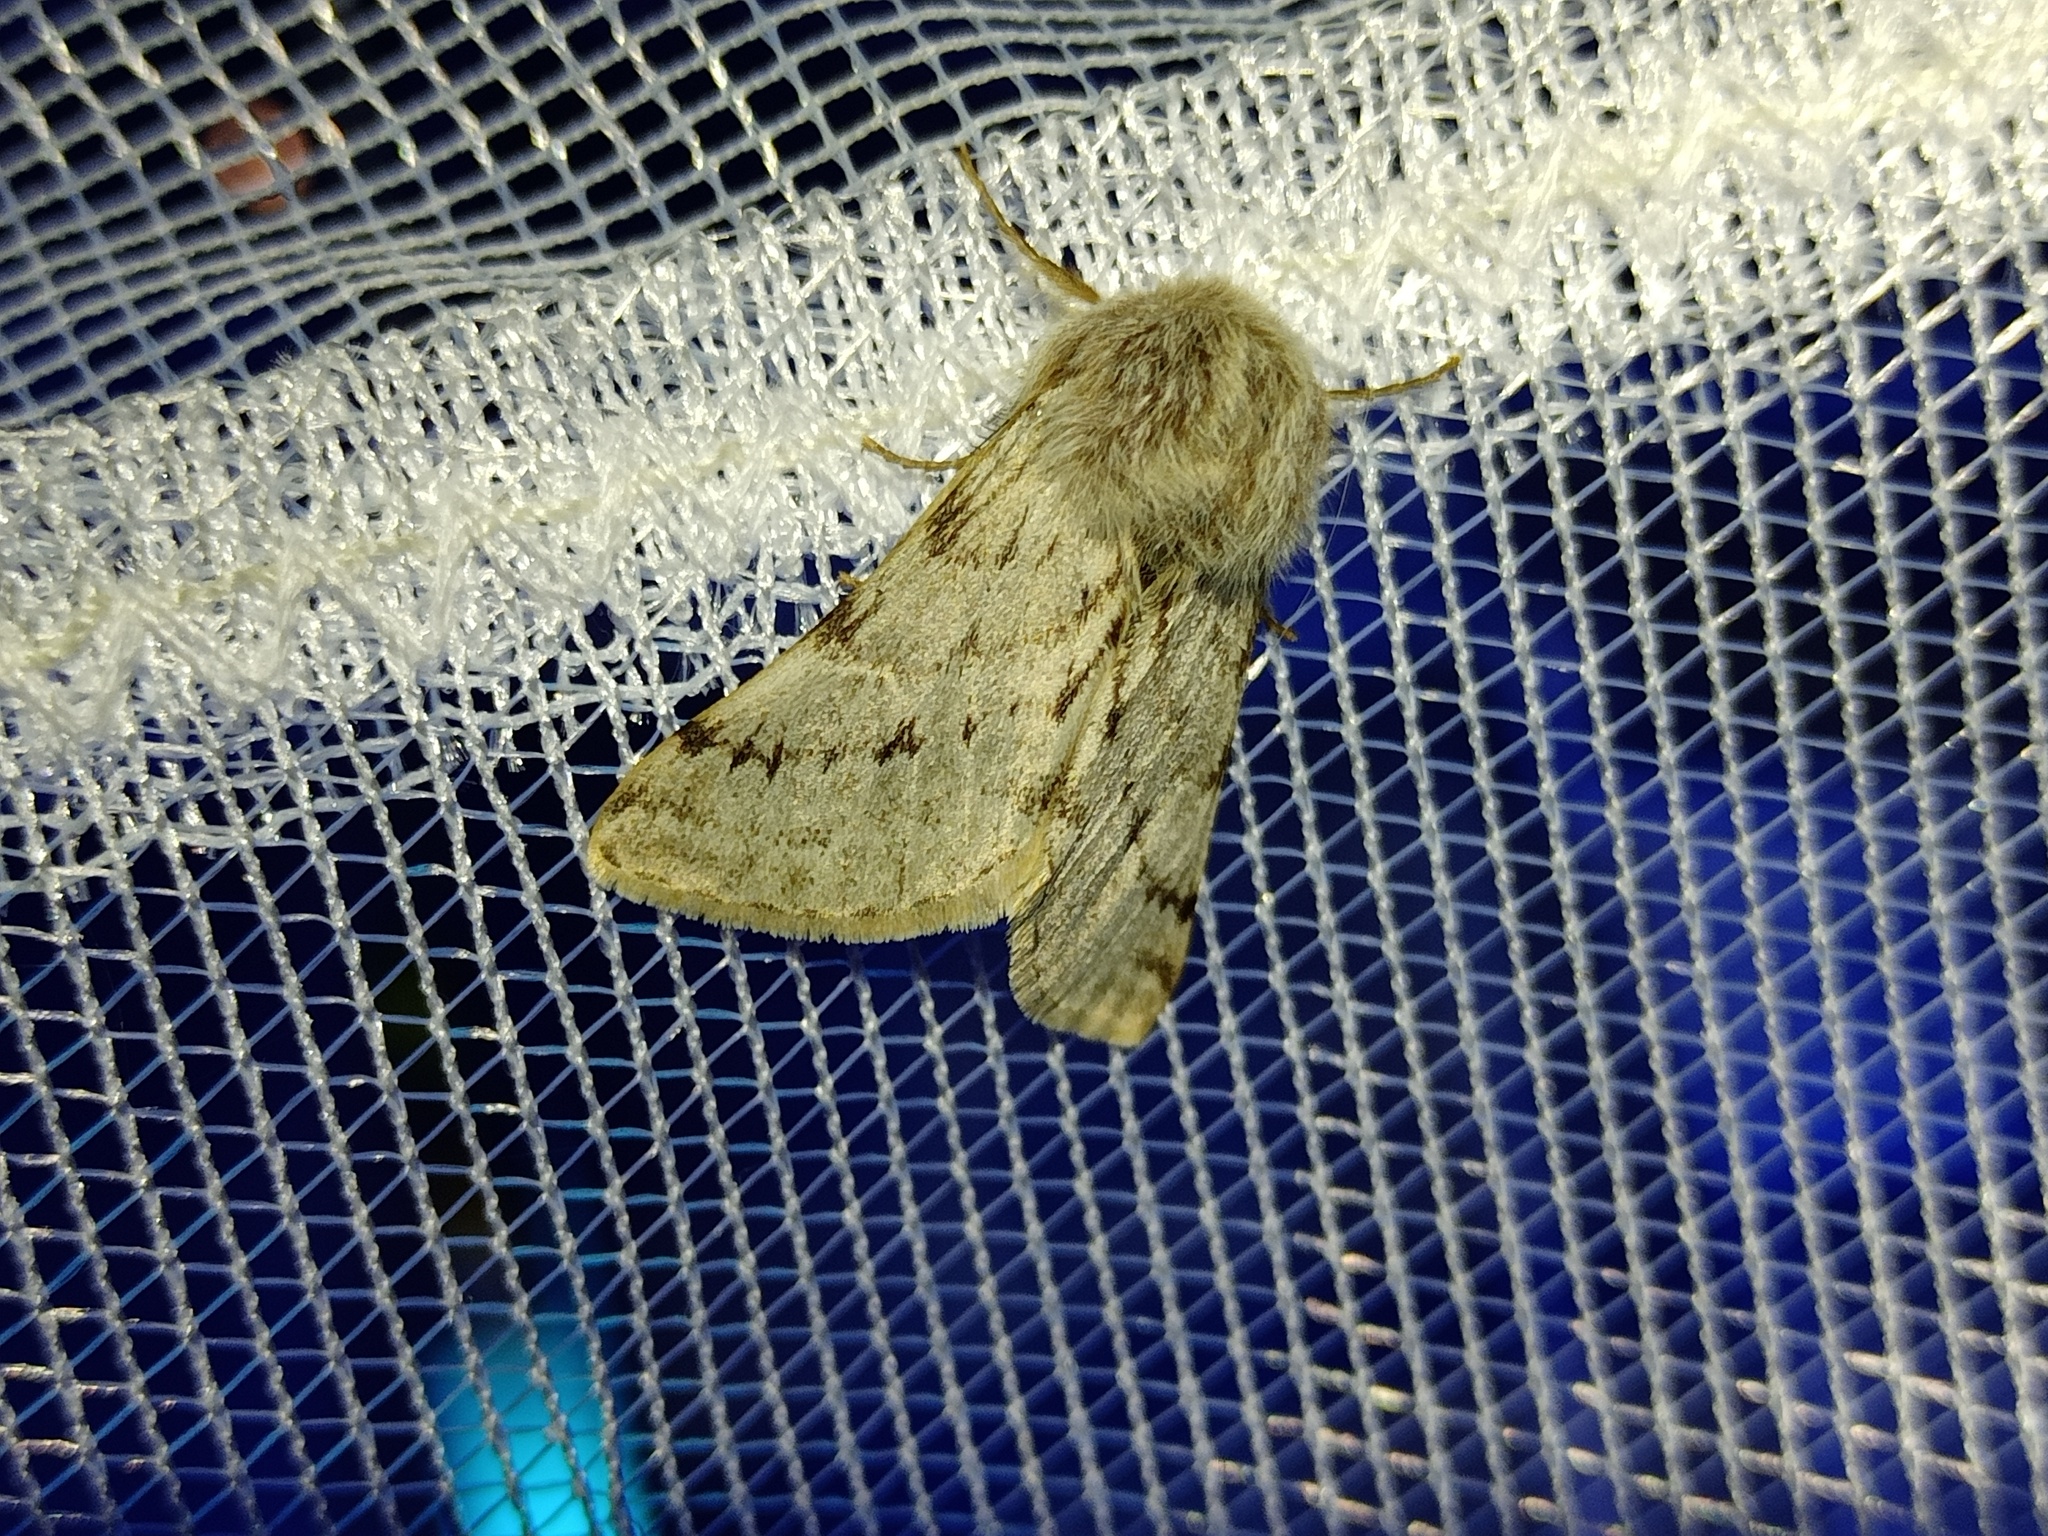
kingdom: Animalia
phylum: Arthropoda
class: Insecta
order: Lepidoptera
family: Geometridae
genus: Lycia
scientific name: Lycia florentina
